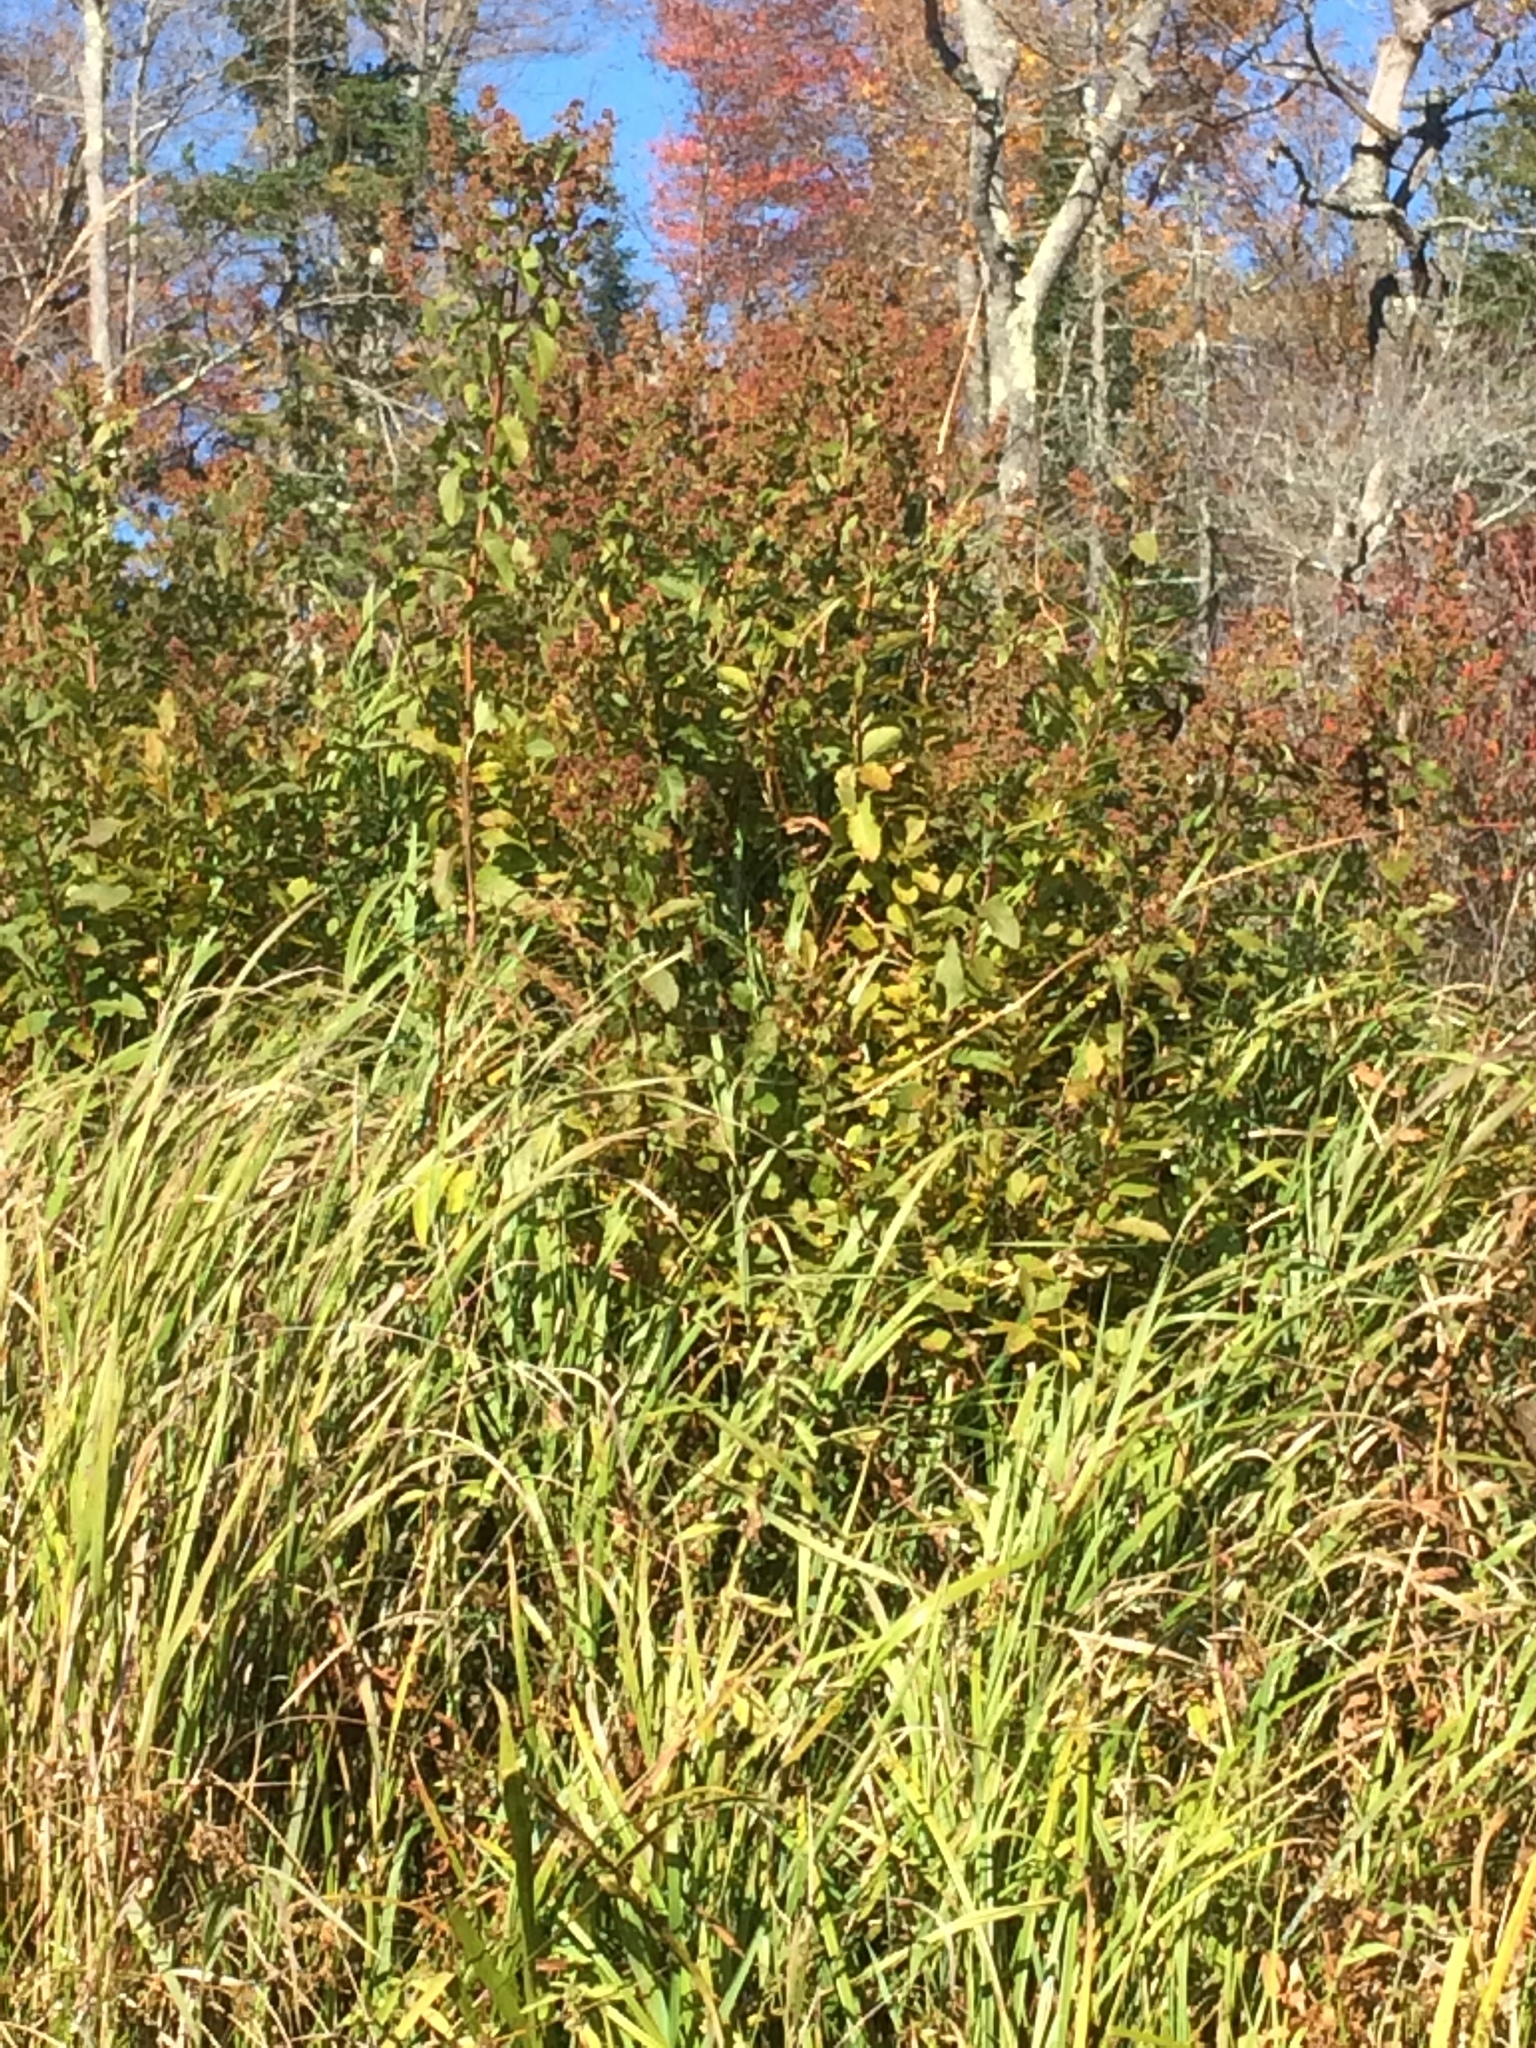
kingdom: Plantae
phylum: Tracheophyta
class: Magnoliopsida
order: Rosales
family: Rosaceae
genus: Spiraea
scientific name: Spiraea alba
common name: Pale bridewort
